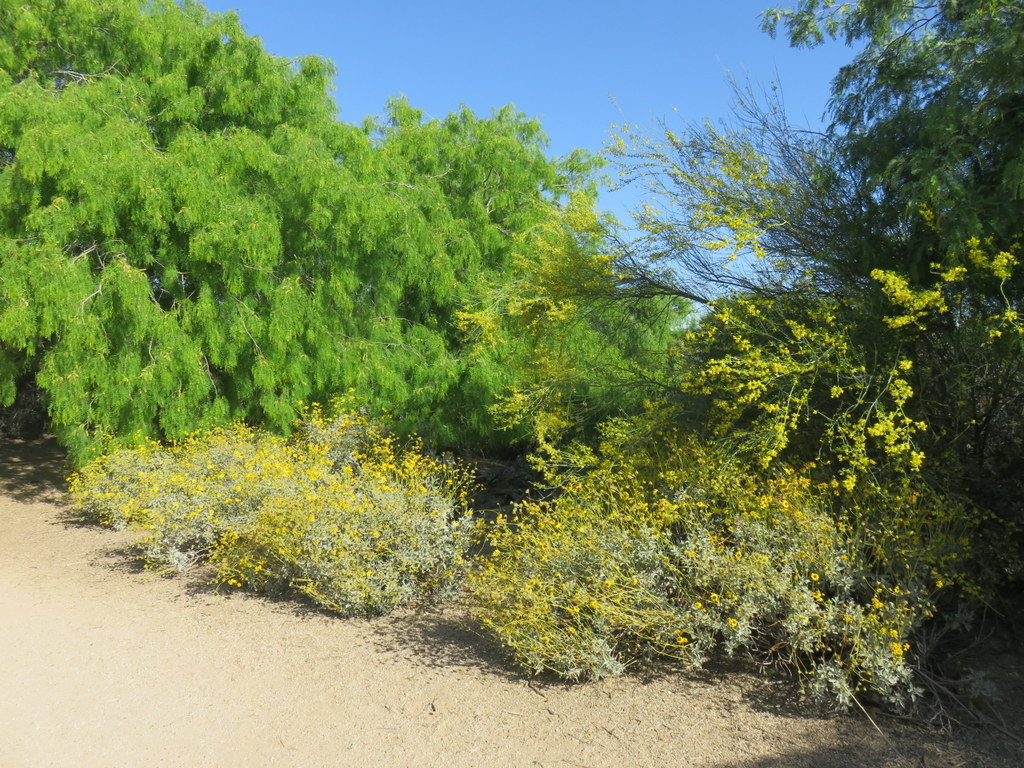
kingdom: Plantae
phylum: Tracheophyta
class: Magnoliopsida
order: Asterales
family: Asteraceae
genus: Encelia
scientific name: Encelia farinosa
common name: Brittlebush
